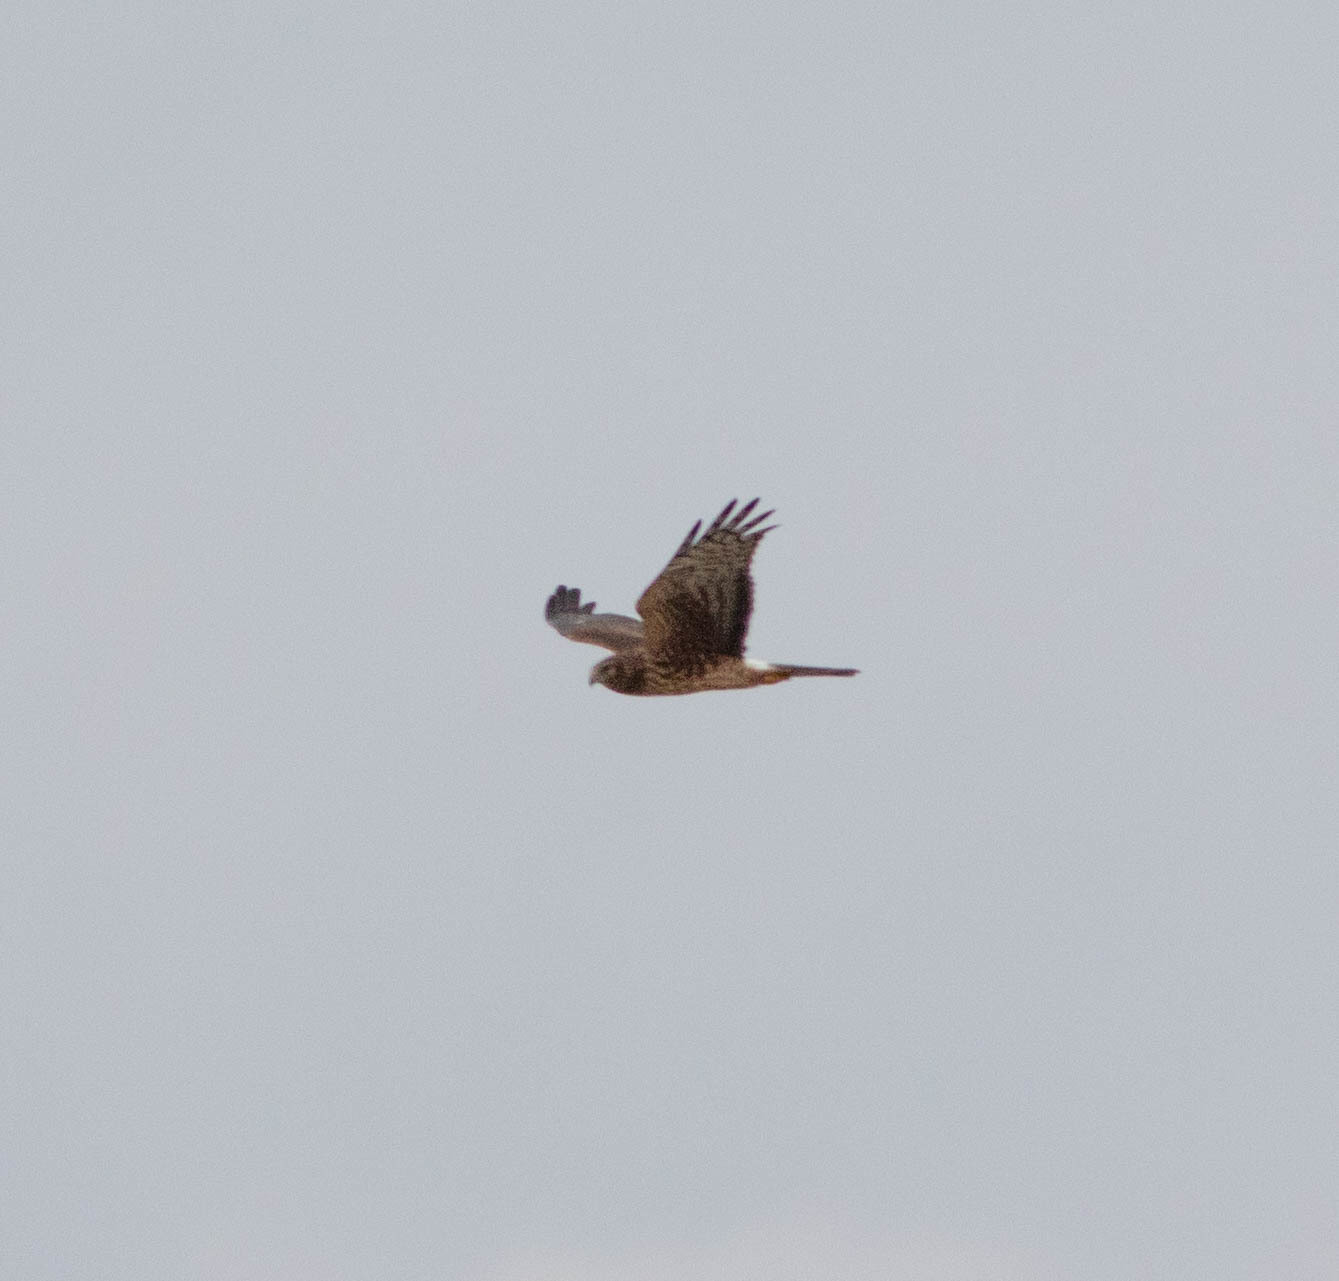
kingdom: Animalia
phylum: Chordata
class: Aves
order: Accipitriformes
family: Accipitridae
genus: Circus
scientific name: Circus cyaneus
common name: Hen harrier
